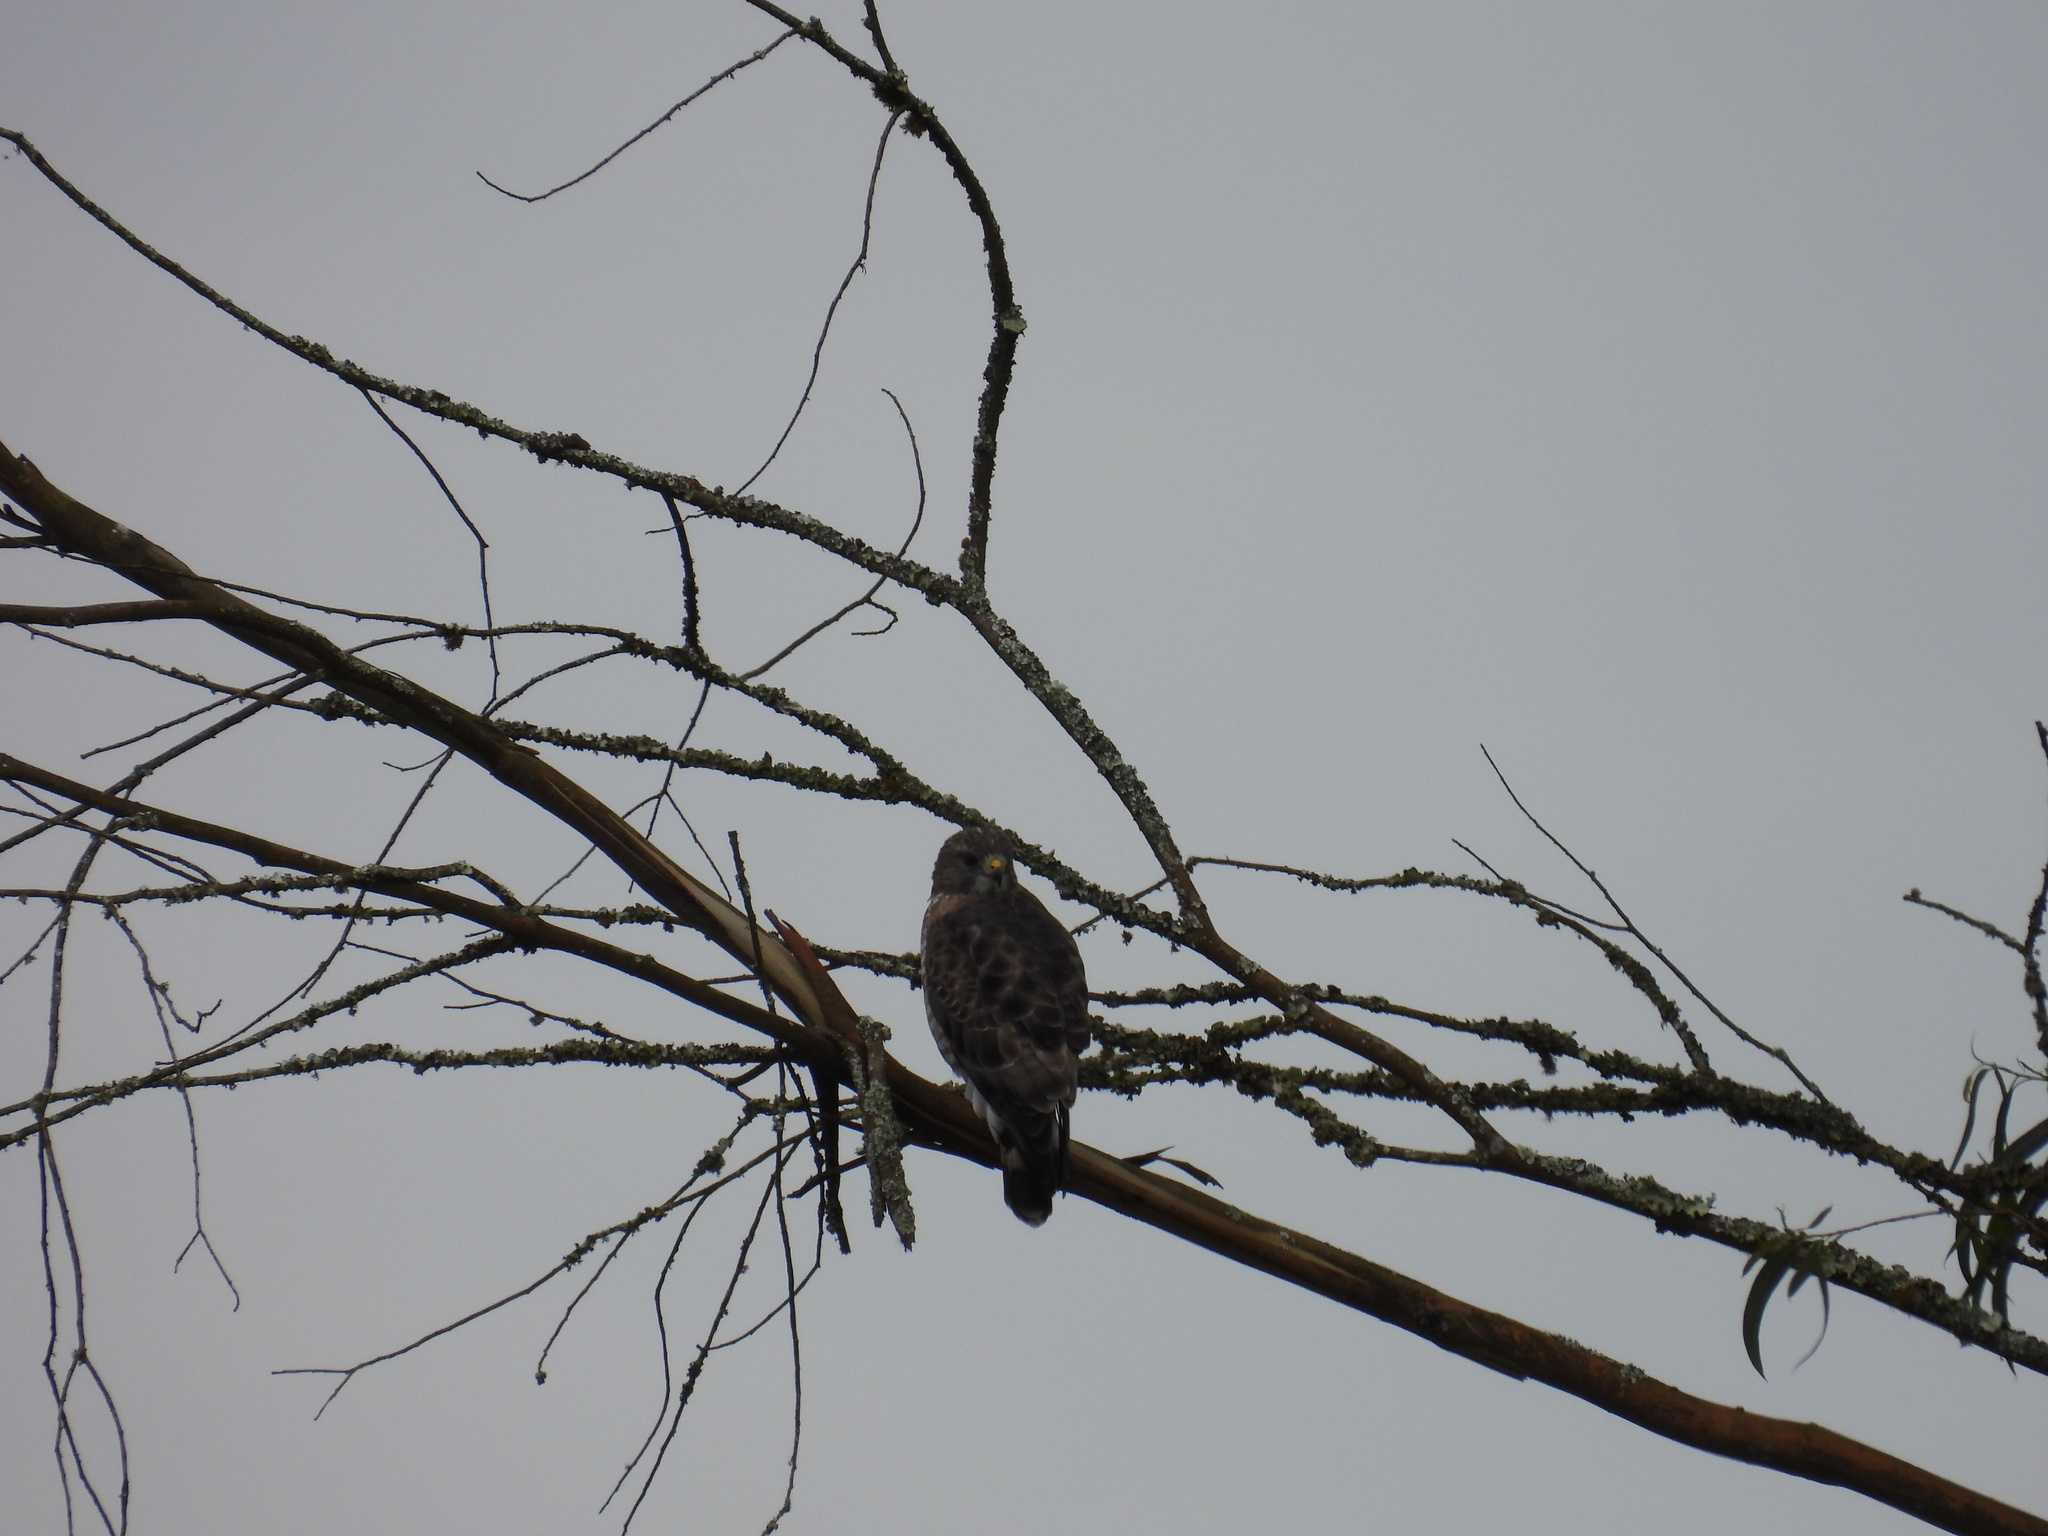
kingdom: Animalia
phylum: Chordata
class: Aves
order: Accipitriformes
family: Accipitridae
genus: Buteo
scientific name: Buteo platypterus
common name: Broad-winged hawk
